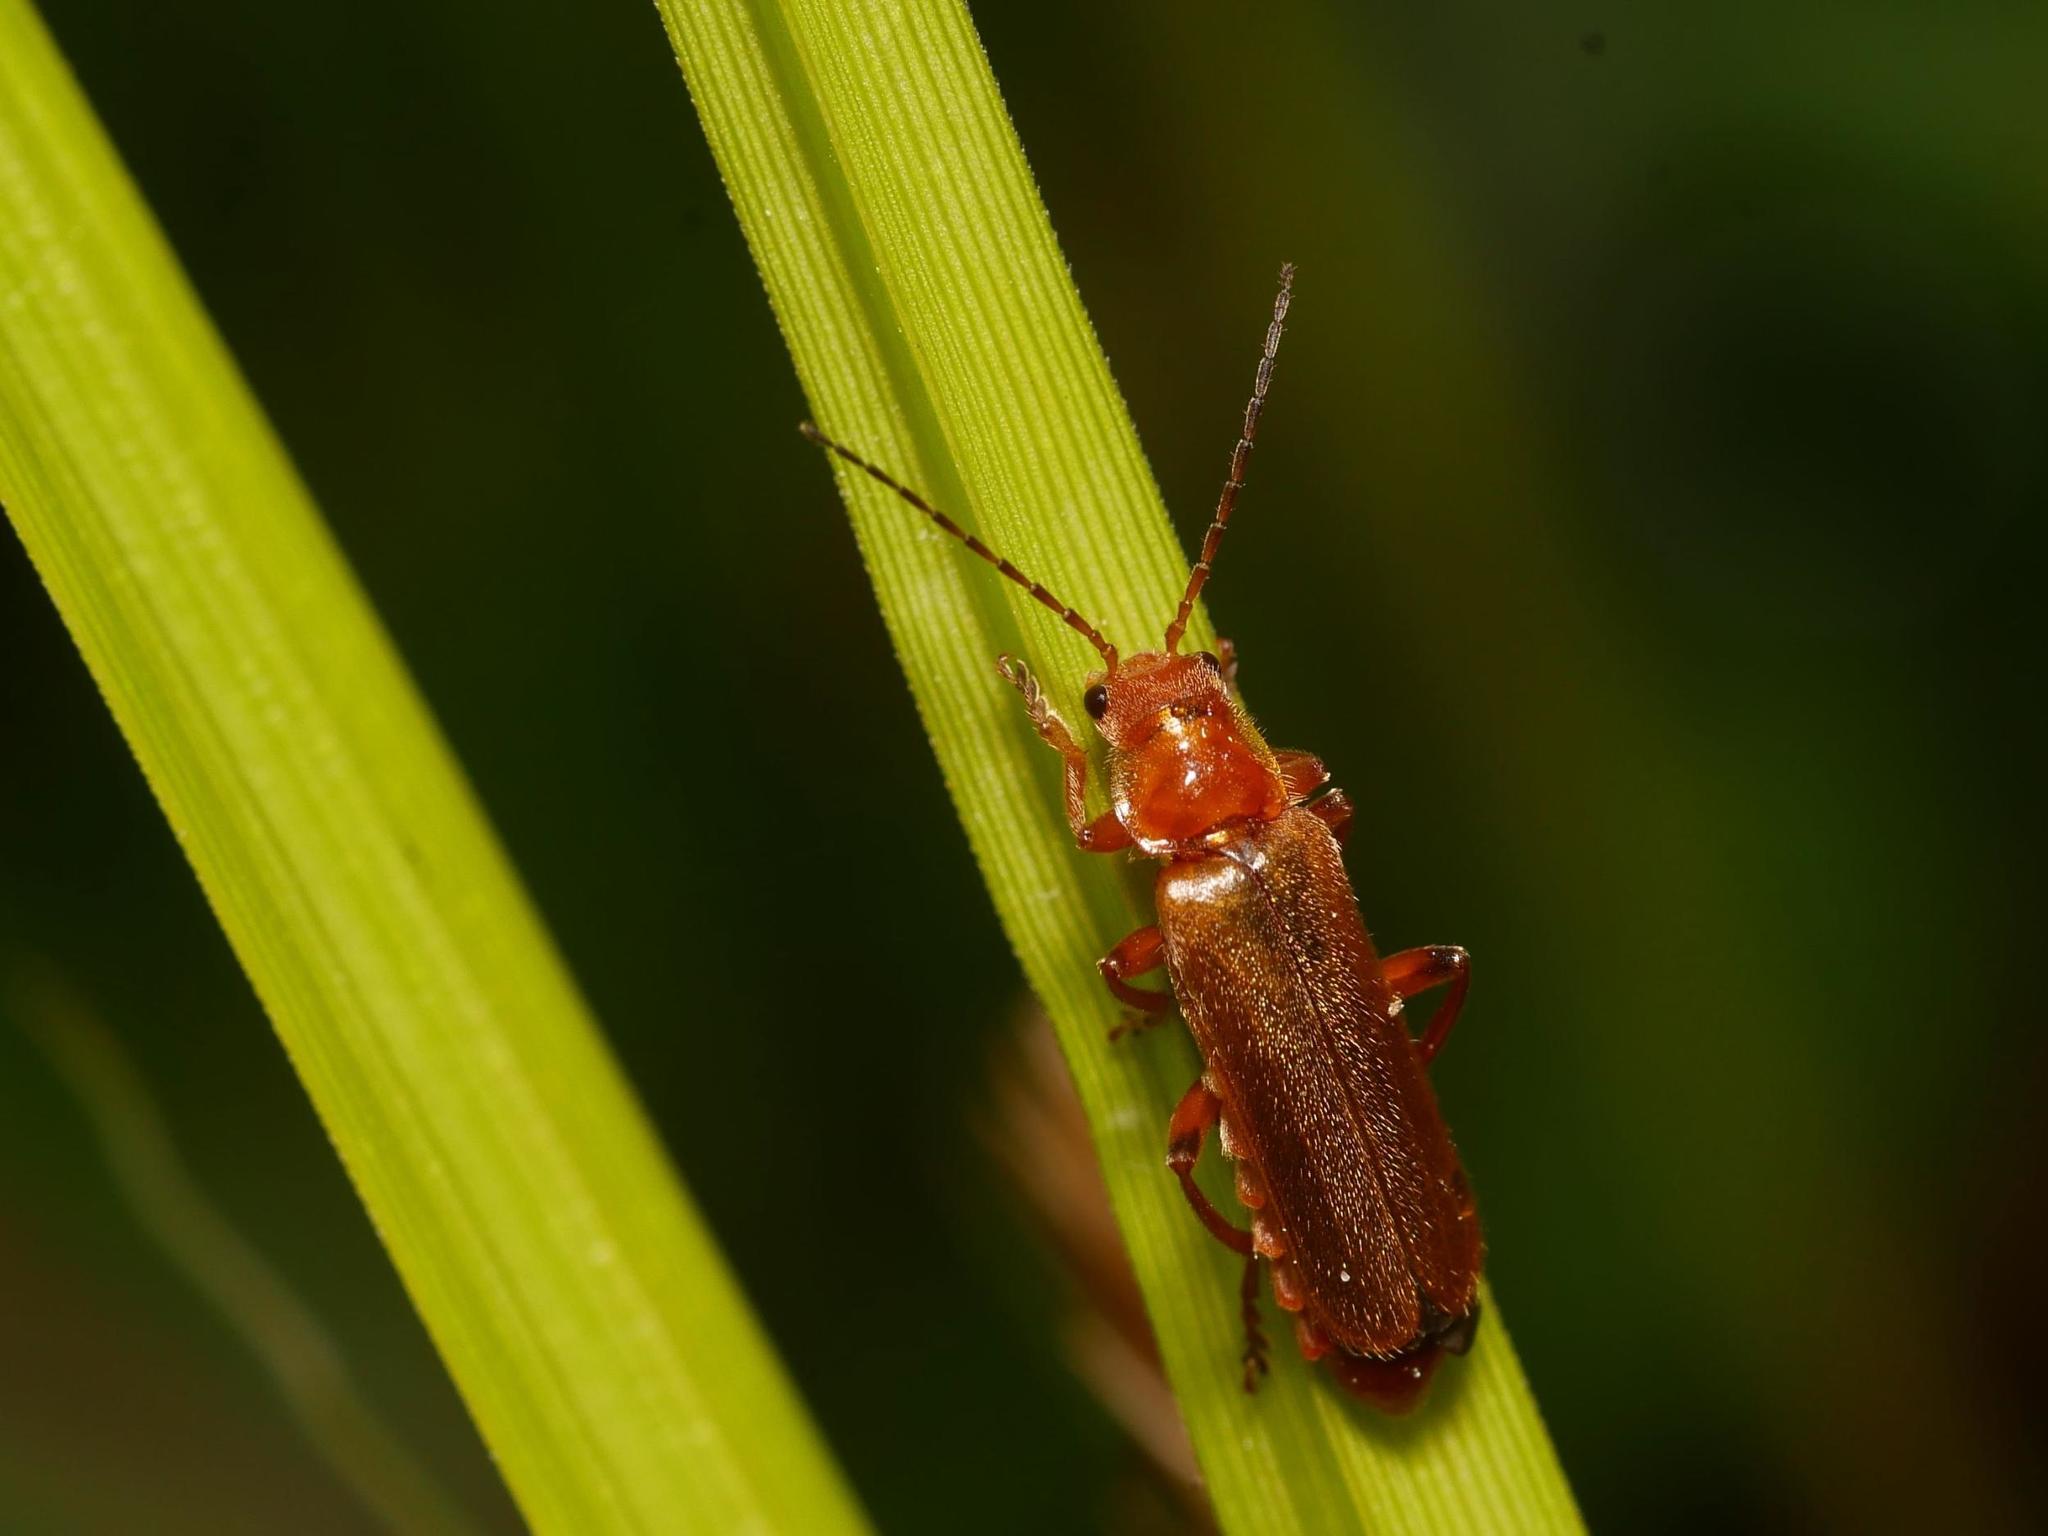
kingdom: Animalia
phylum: Arthropoda
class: Insecta
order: Coleoptera
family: Cantharidae
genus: Cantharis
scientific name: Cantharis rufa
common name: Red-spotted soldier beetle
